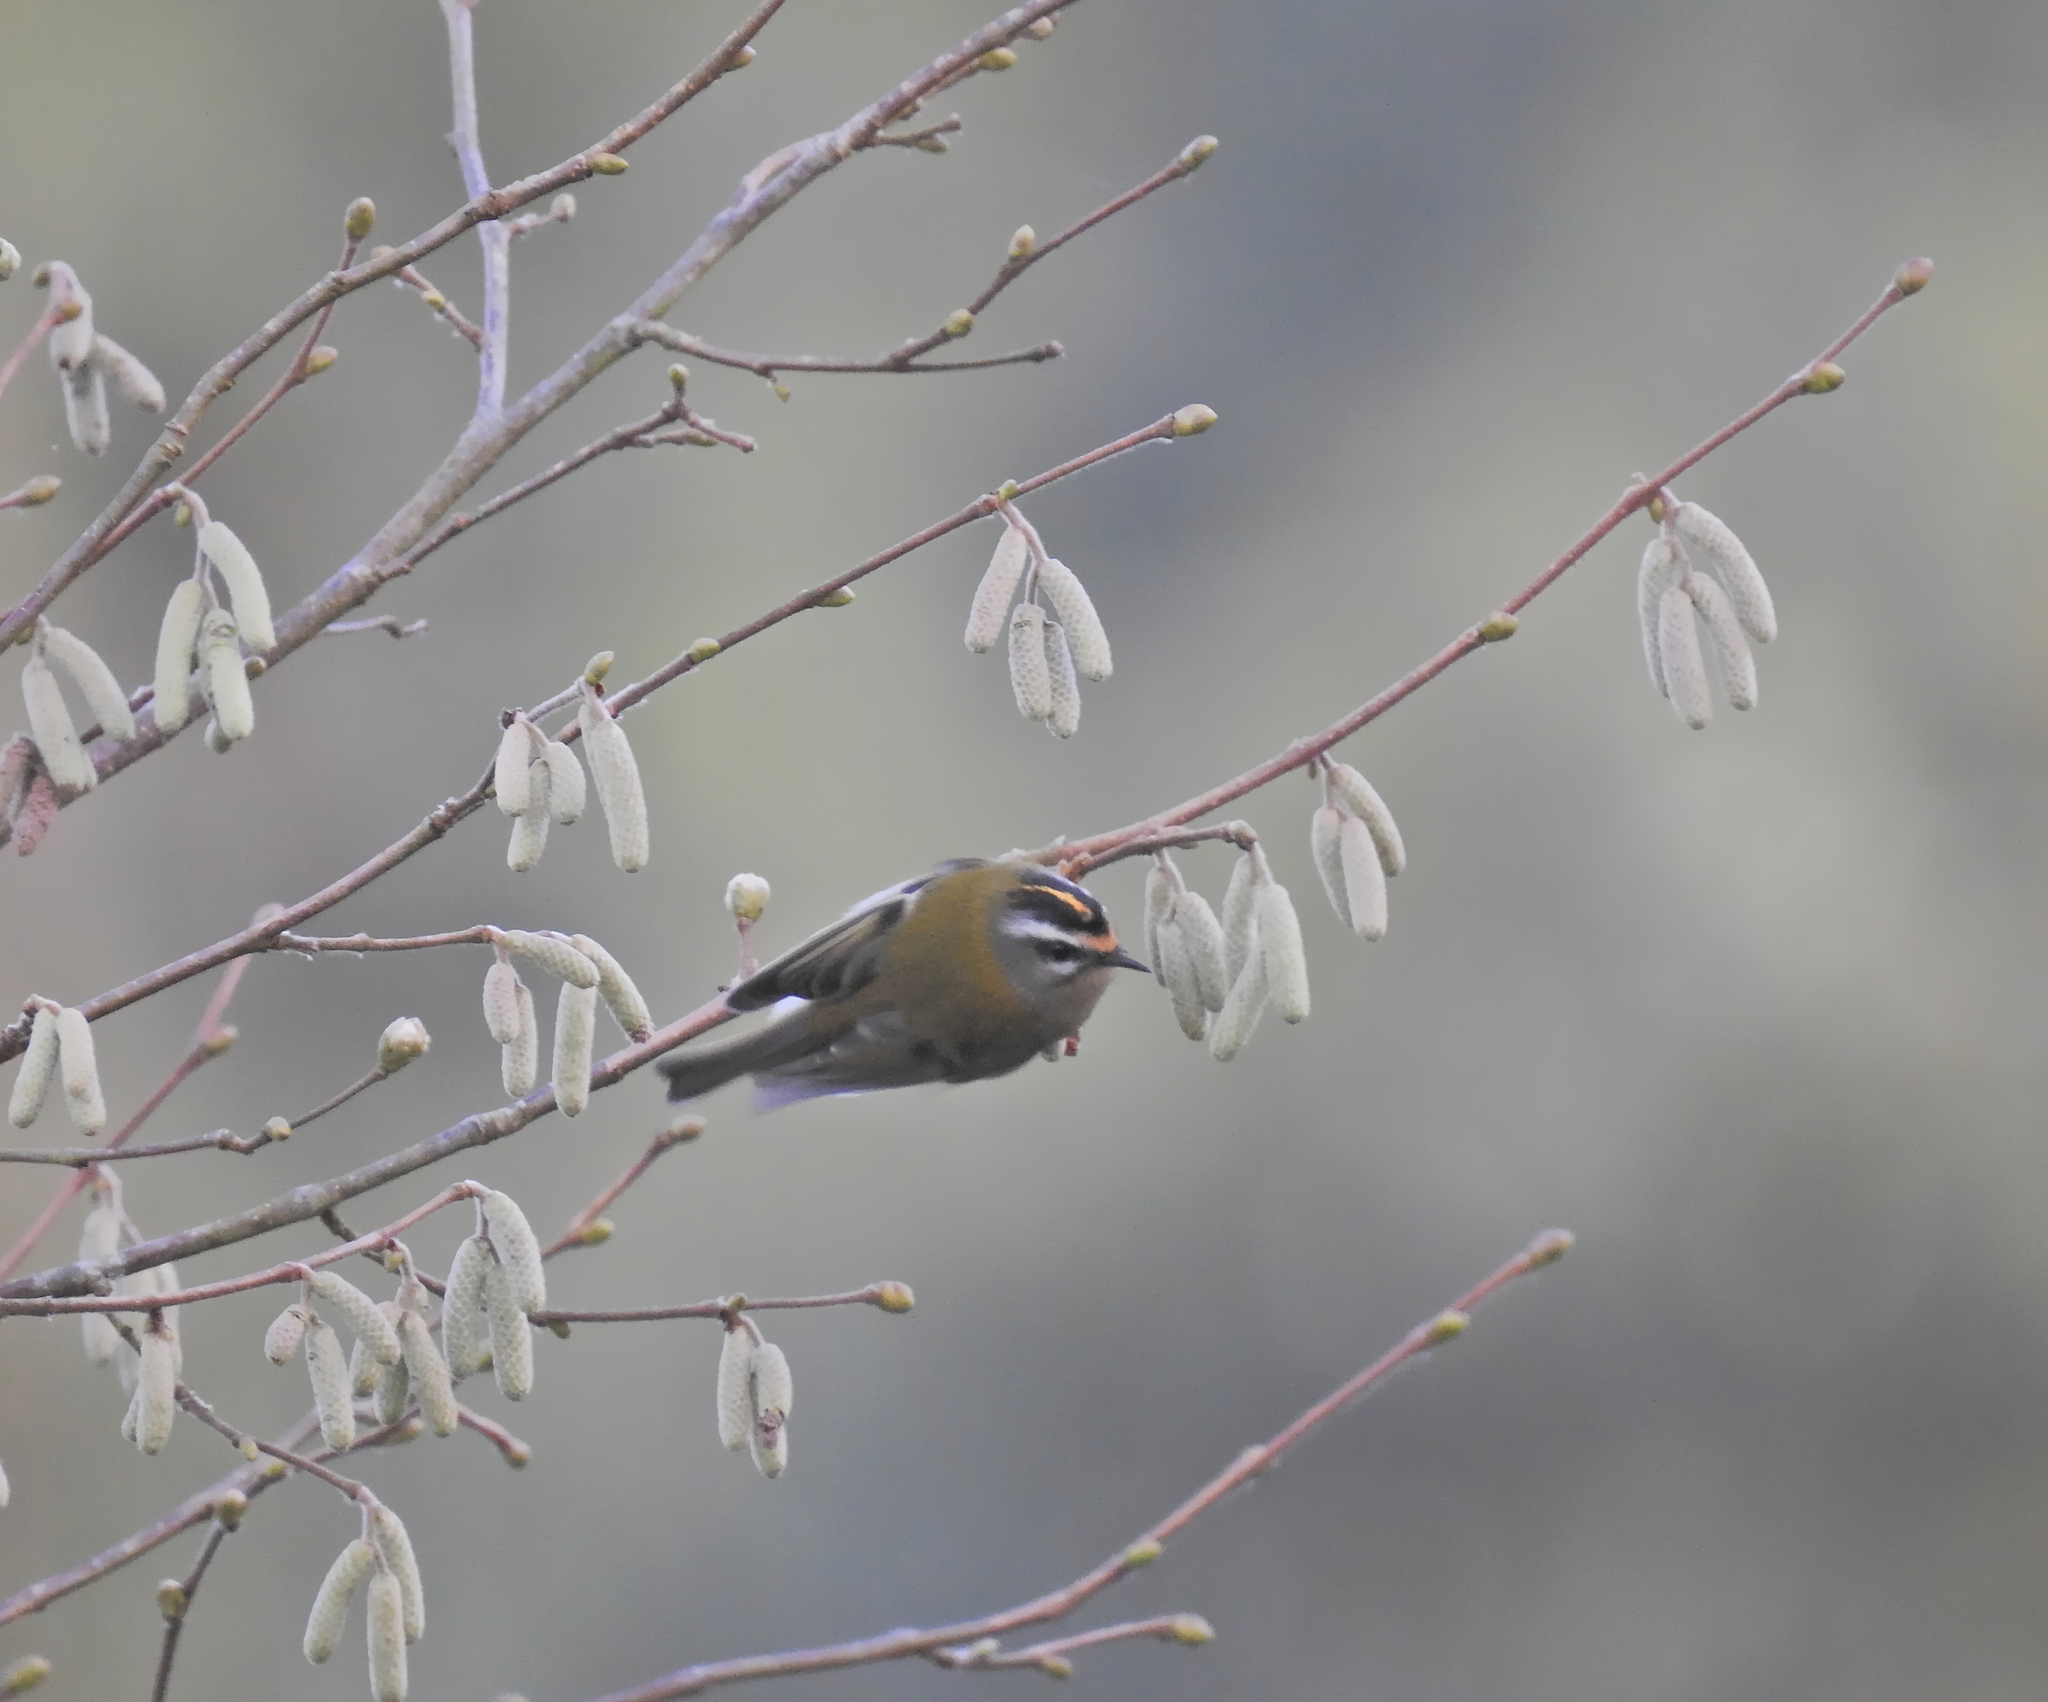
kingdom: Animalia
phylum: Chordata
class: Aves
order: Passeriformes
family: Regulidae
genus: Regulus
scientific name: Regulus ignicapilla
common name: Firecrest
